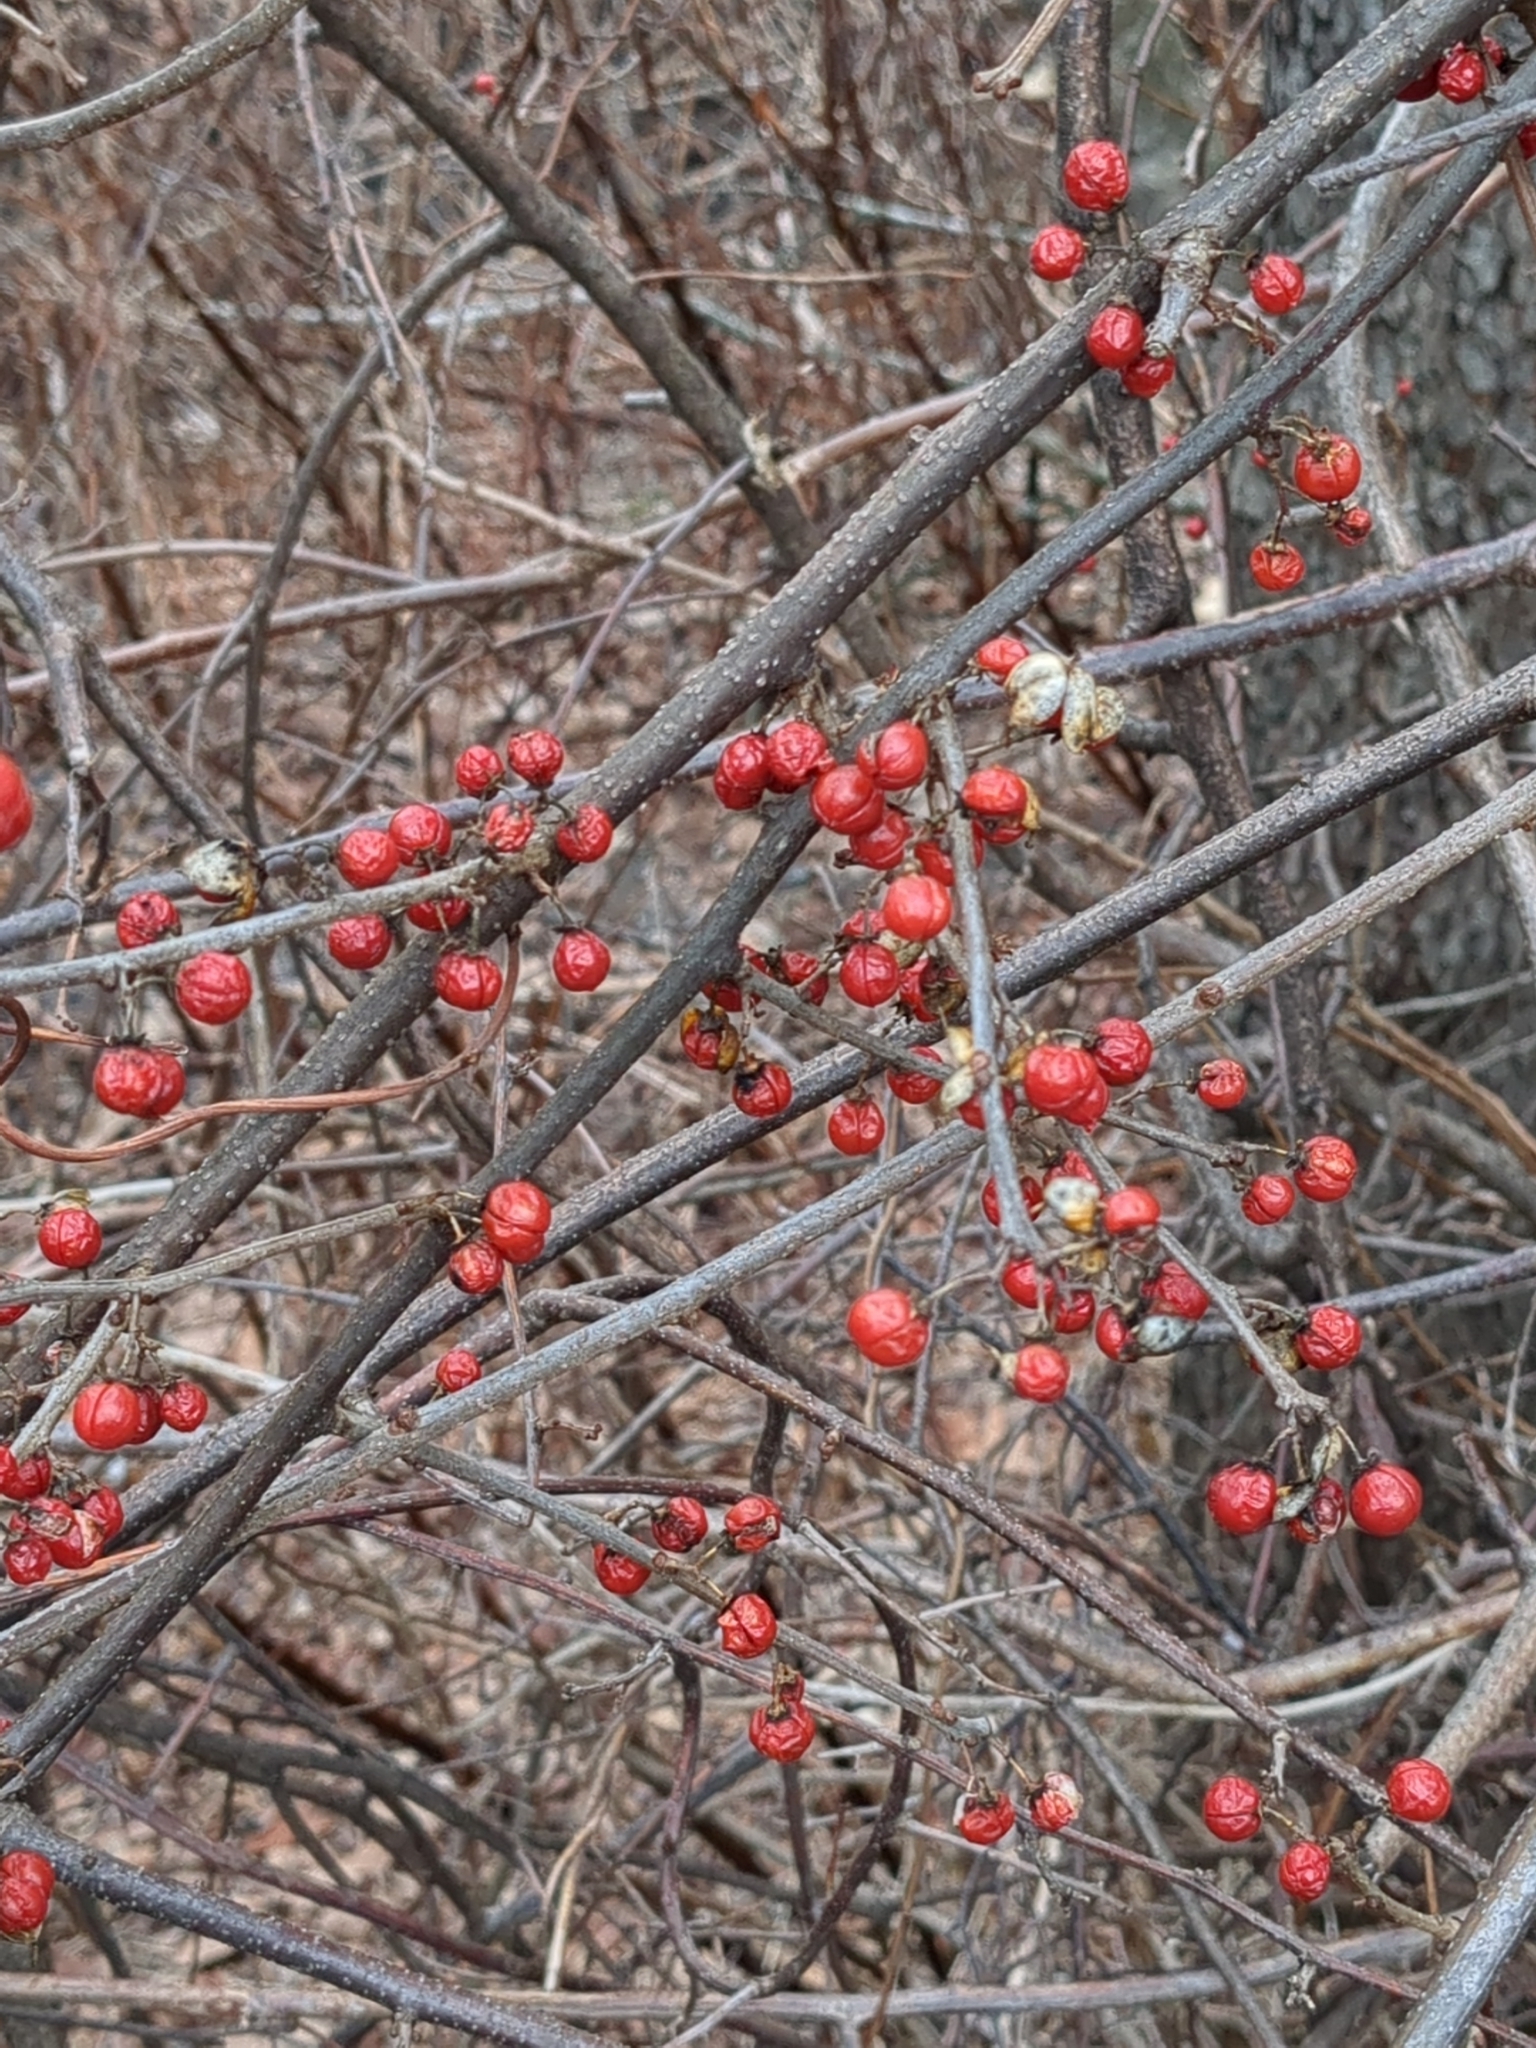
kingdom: Plantae
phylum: Tracheophyta
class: Magnoliopsida
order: Celastrales
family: Celastraceae
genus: Celastrus
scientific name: Celastrus orbiculatus
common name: Oriental bittersweet
